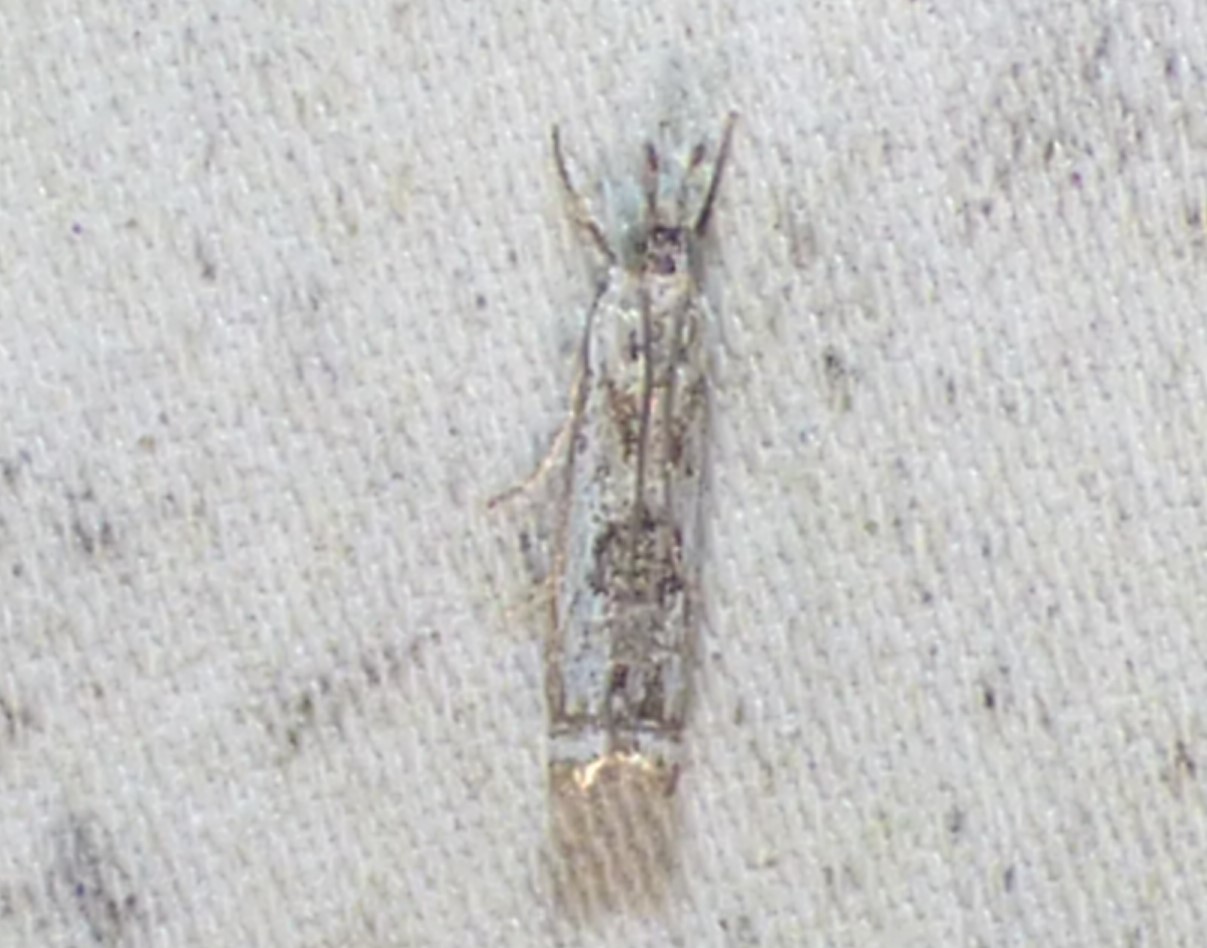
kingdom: Animalia
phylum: Arthropoda
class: Insecta
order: Lepidoptera
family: Crambidae
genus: Microcrambus
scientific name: Microcrambus immunellus
